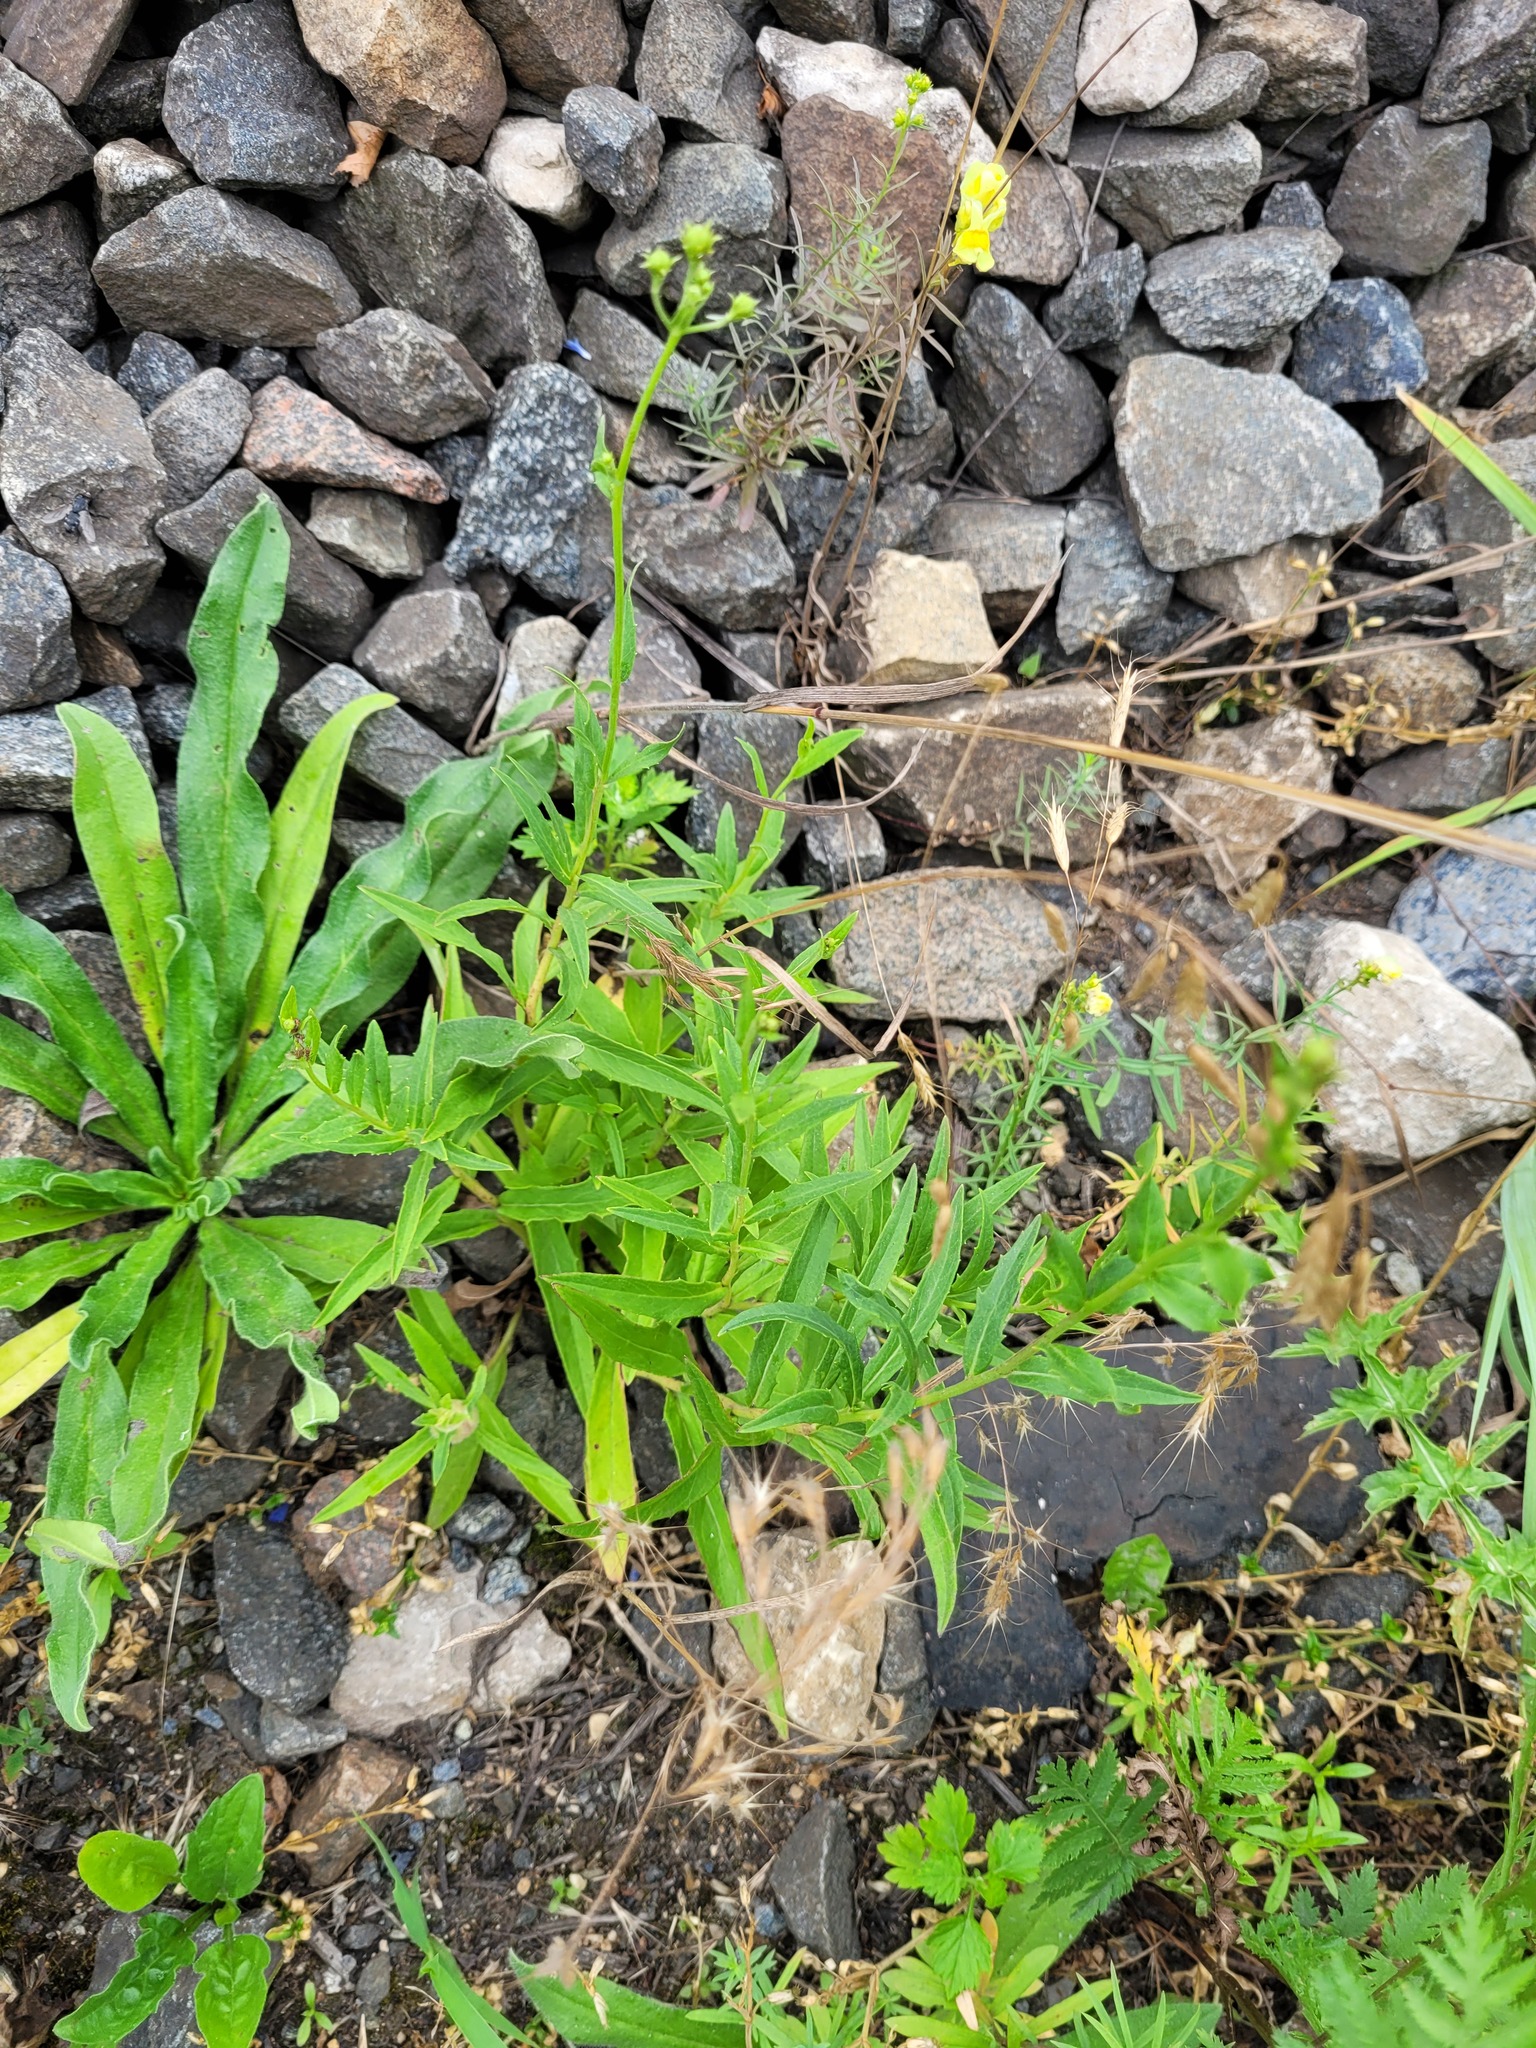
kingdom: Plantae
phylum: Tracheophyta
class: Magnoliopsida
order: Asterales
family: Asteraceae
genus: Hieracium
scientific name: Hieracium umbellatum
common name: Northern hawkweed
